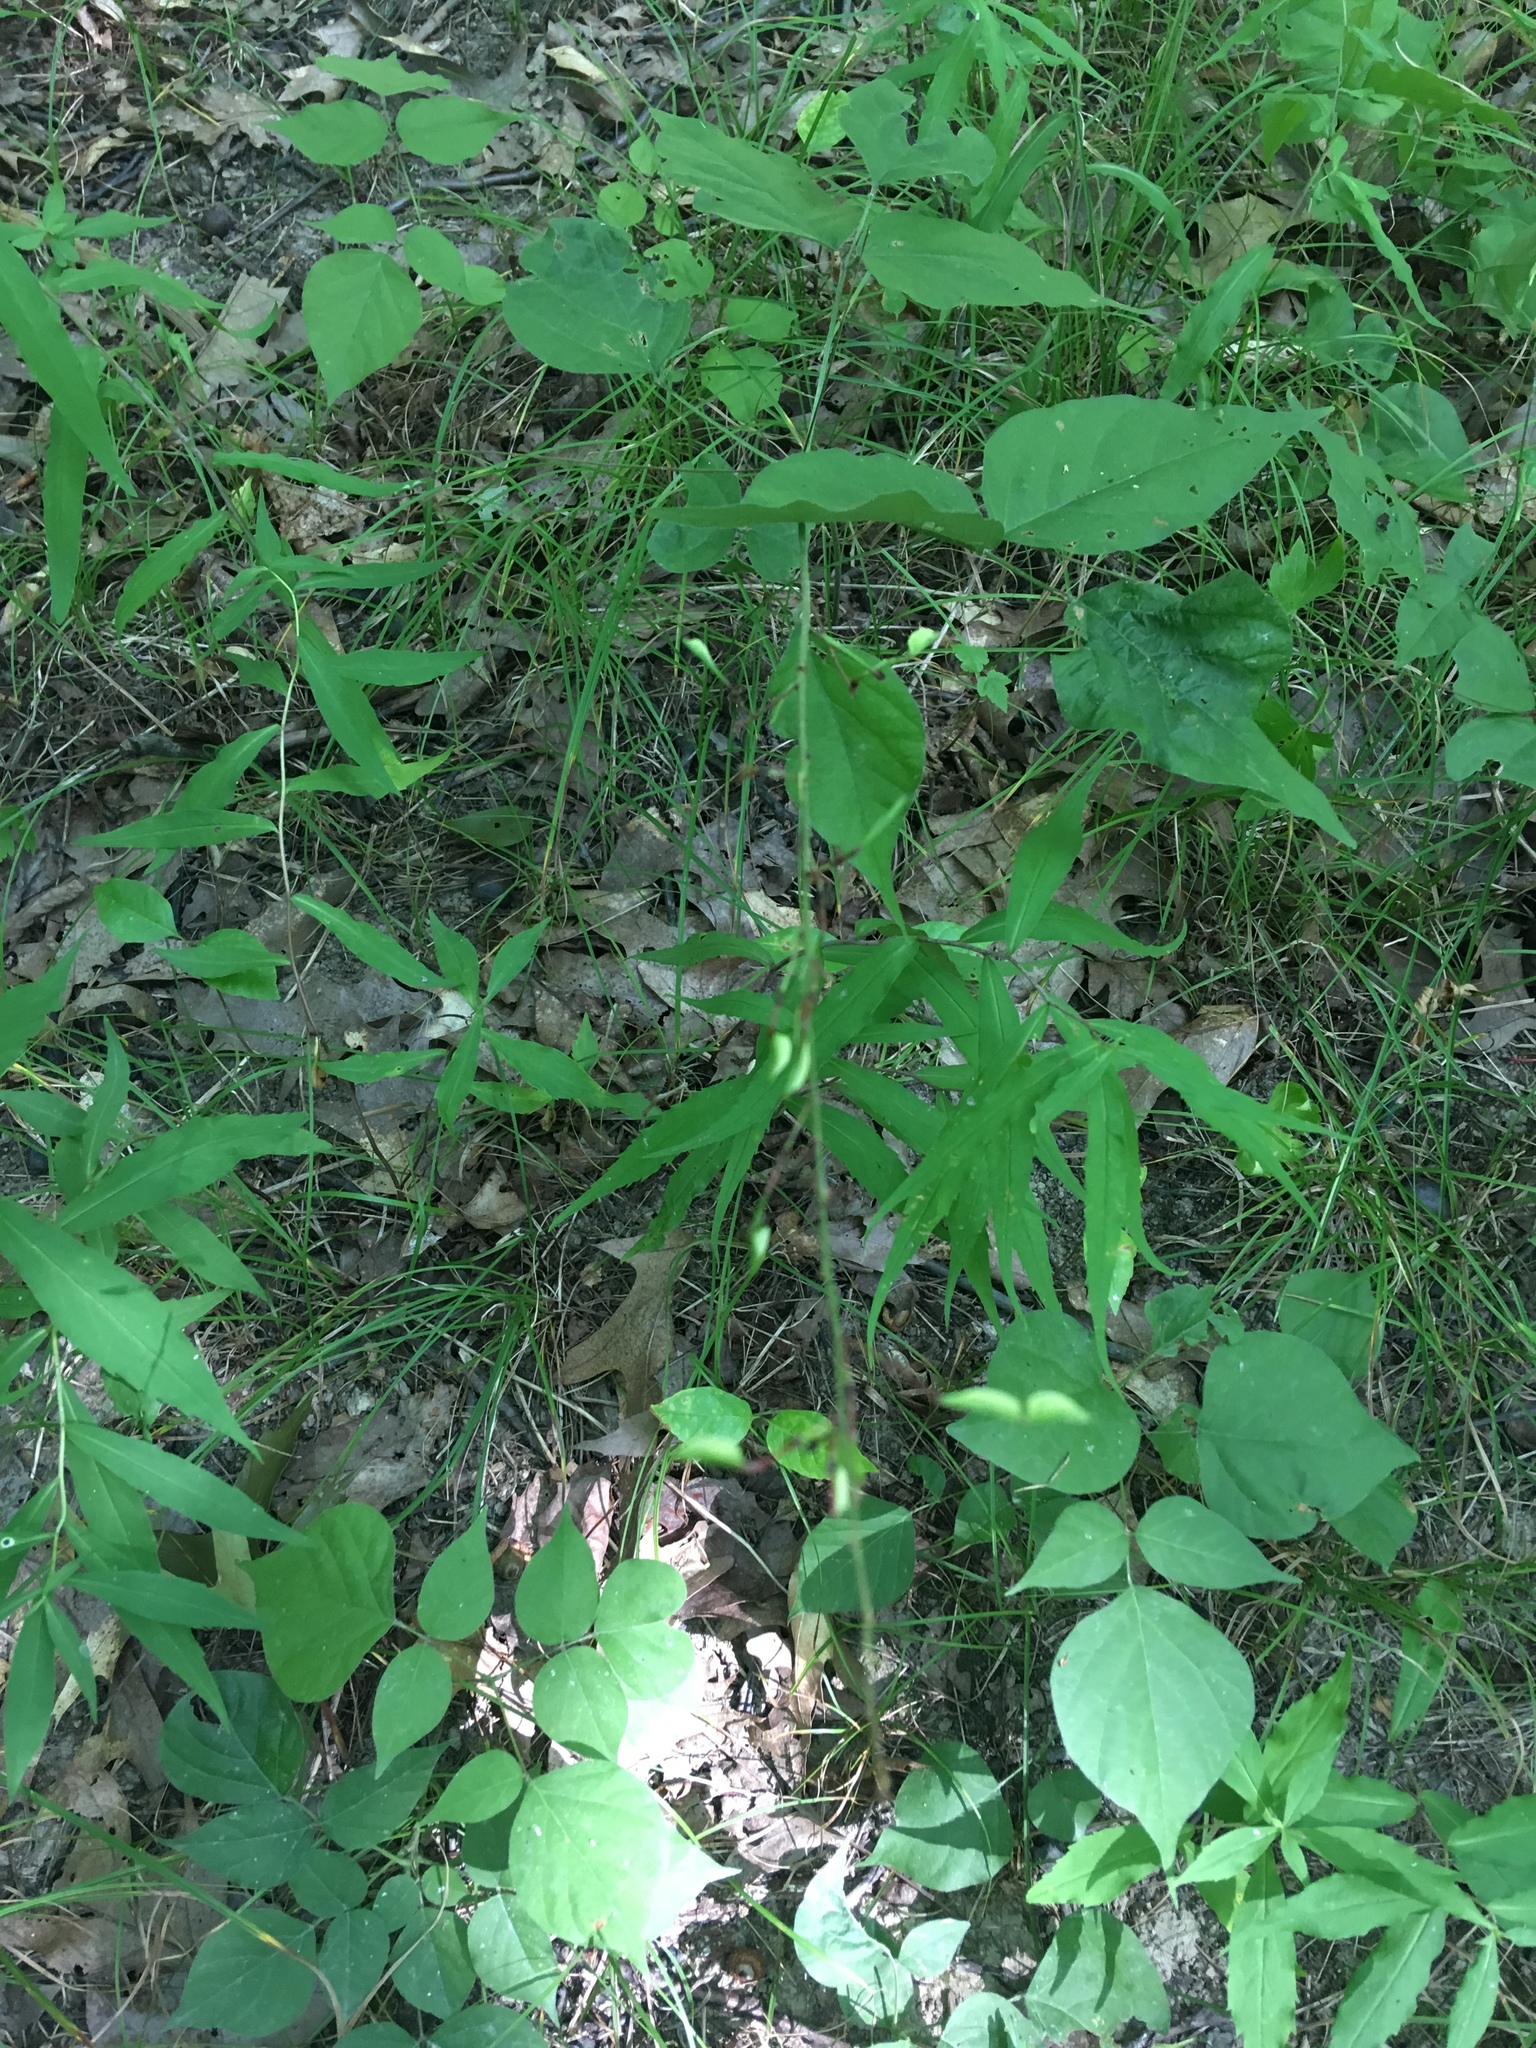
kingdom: Plantae
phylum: Tracheophyta
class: Magnoliopsida
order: Fabales
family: Fabaceae
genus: Hylodesmum
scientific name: Hylodesmum glutinosum
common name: Clustered-leaved tick-trefoil
